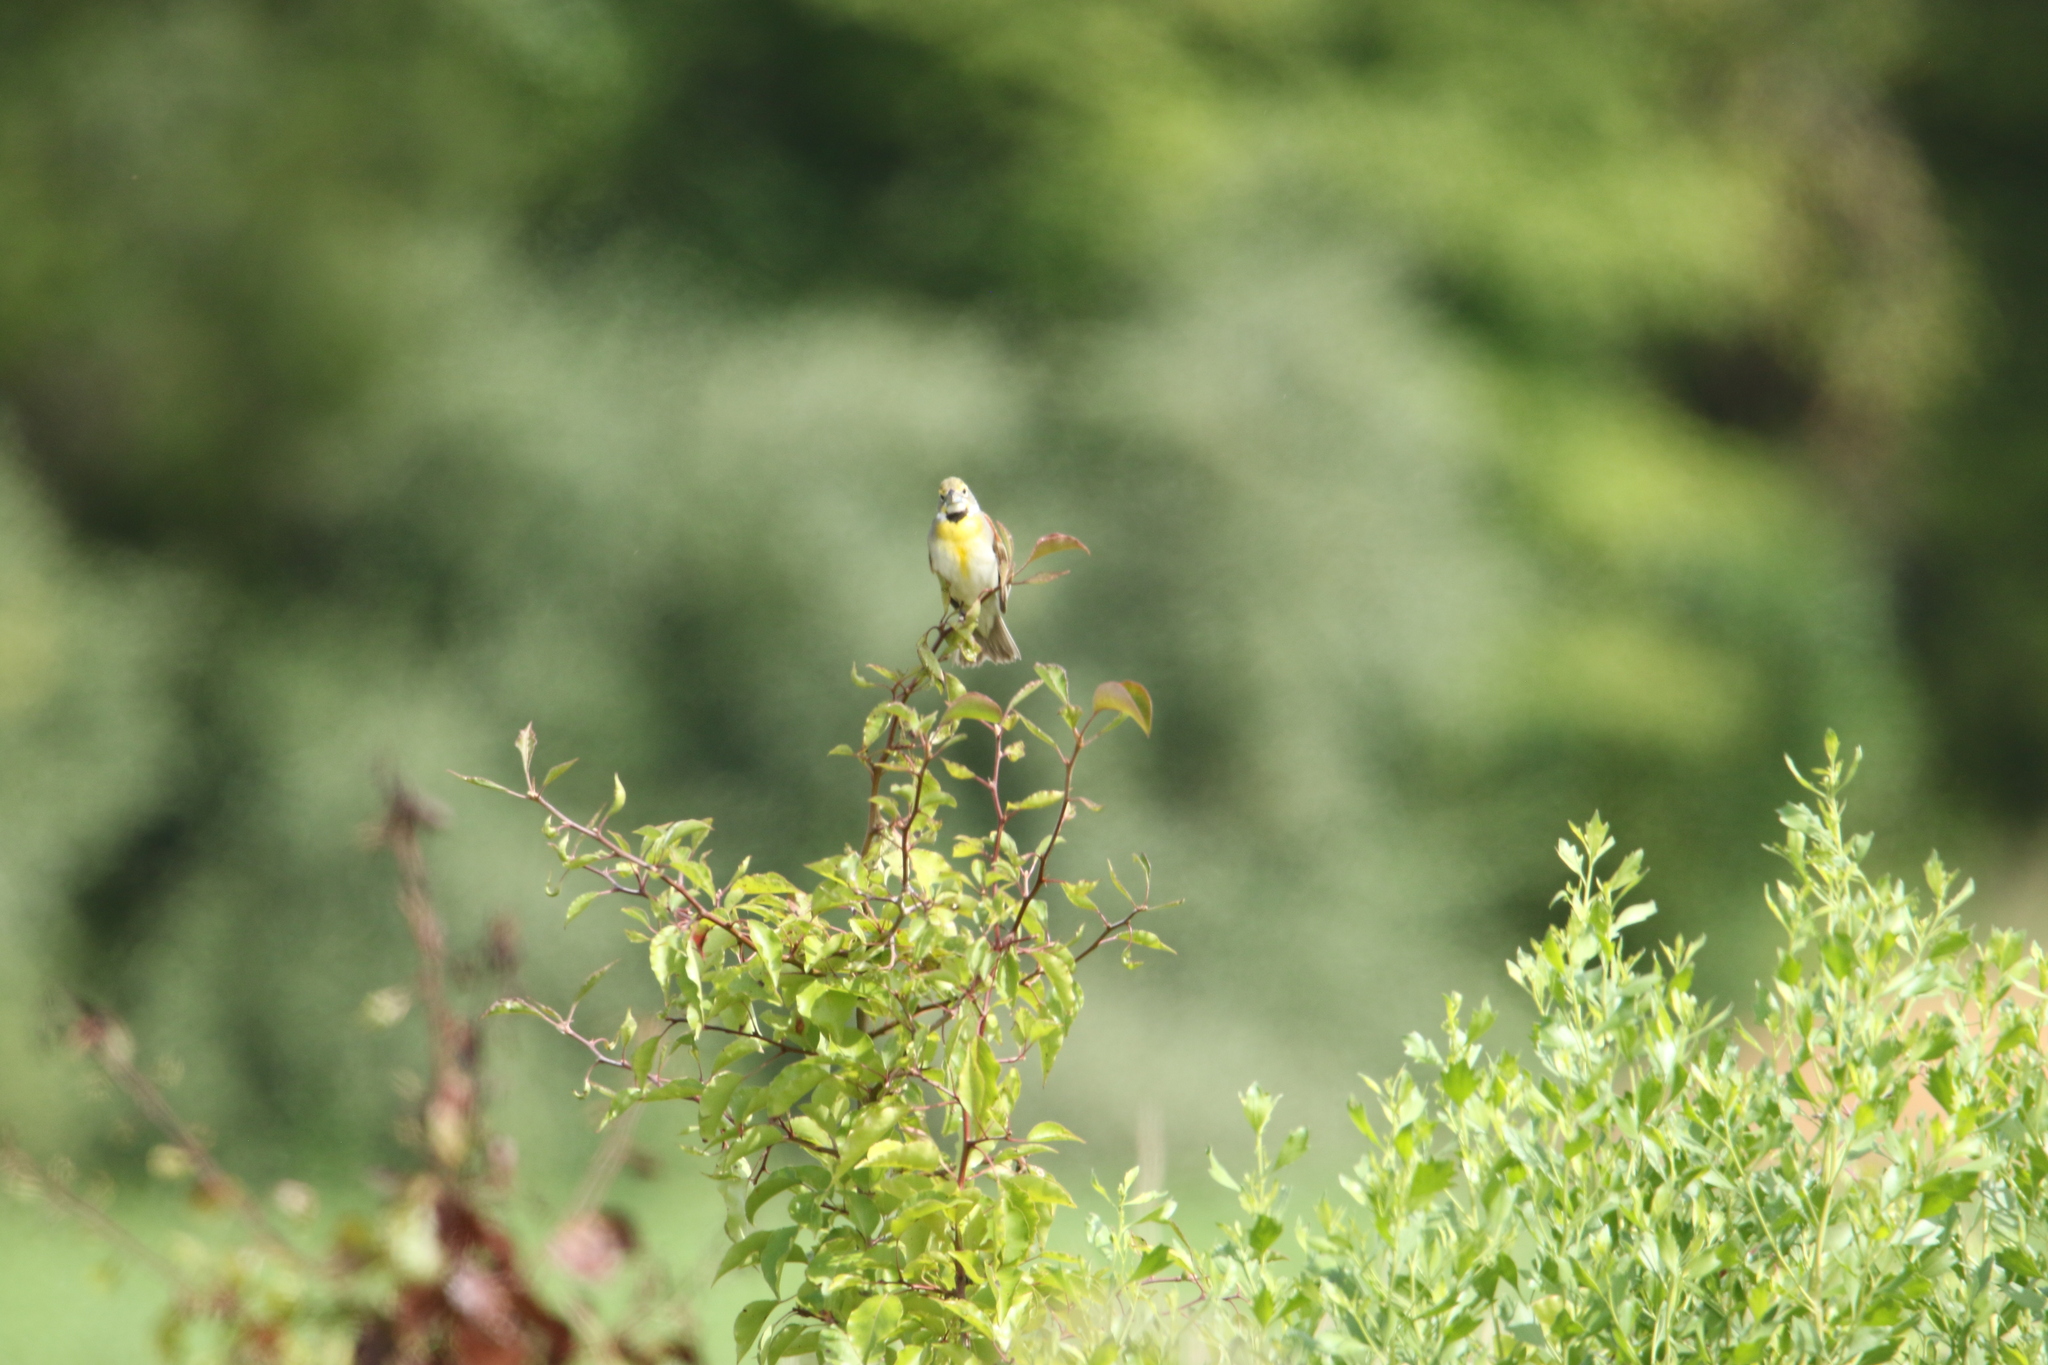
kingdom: Animalia
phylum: Chordata
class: Aves
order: Passeriformes
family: Cardinalidae
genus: Spiza
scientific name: Spiza americana
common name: Dickcissel
